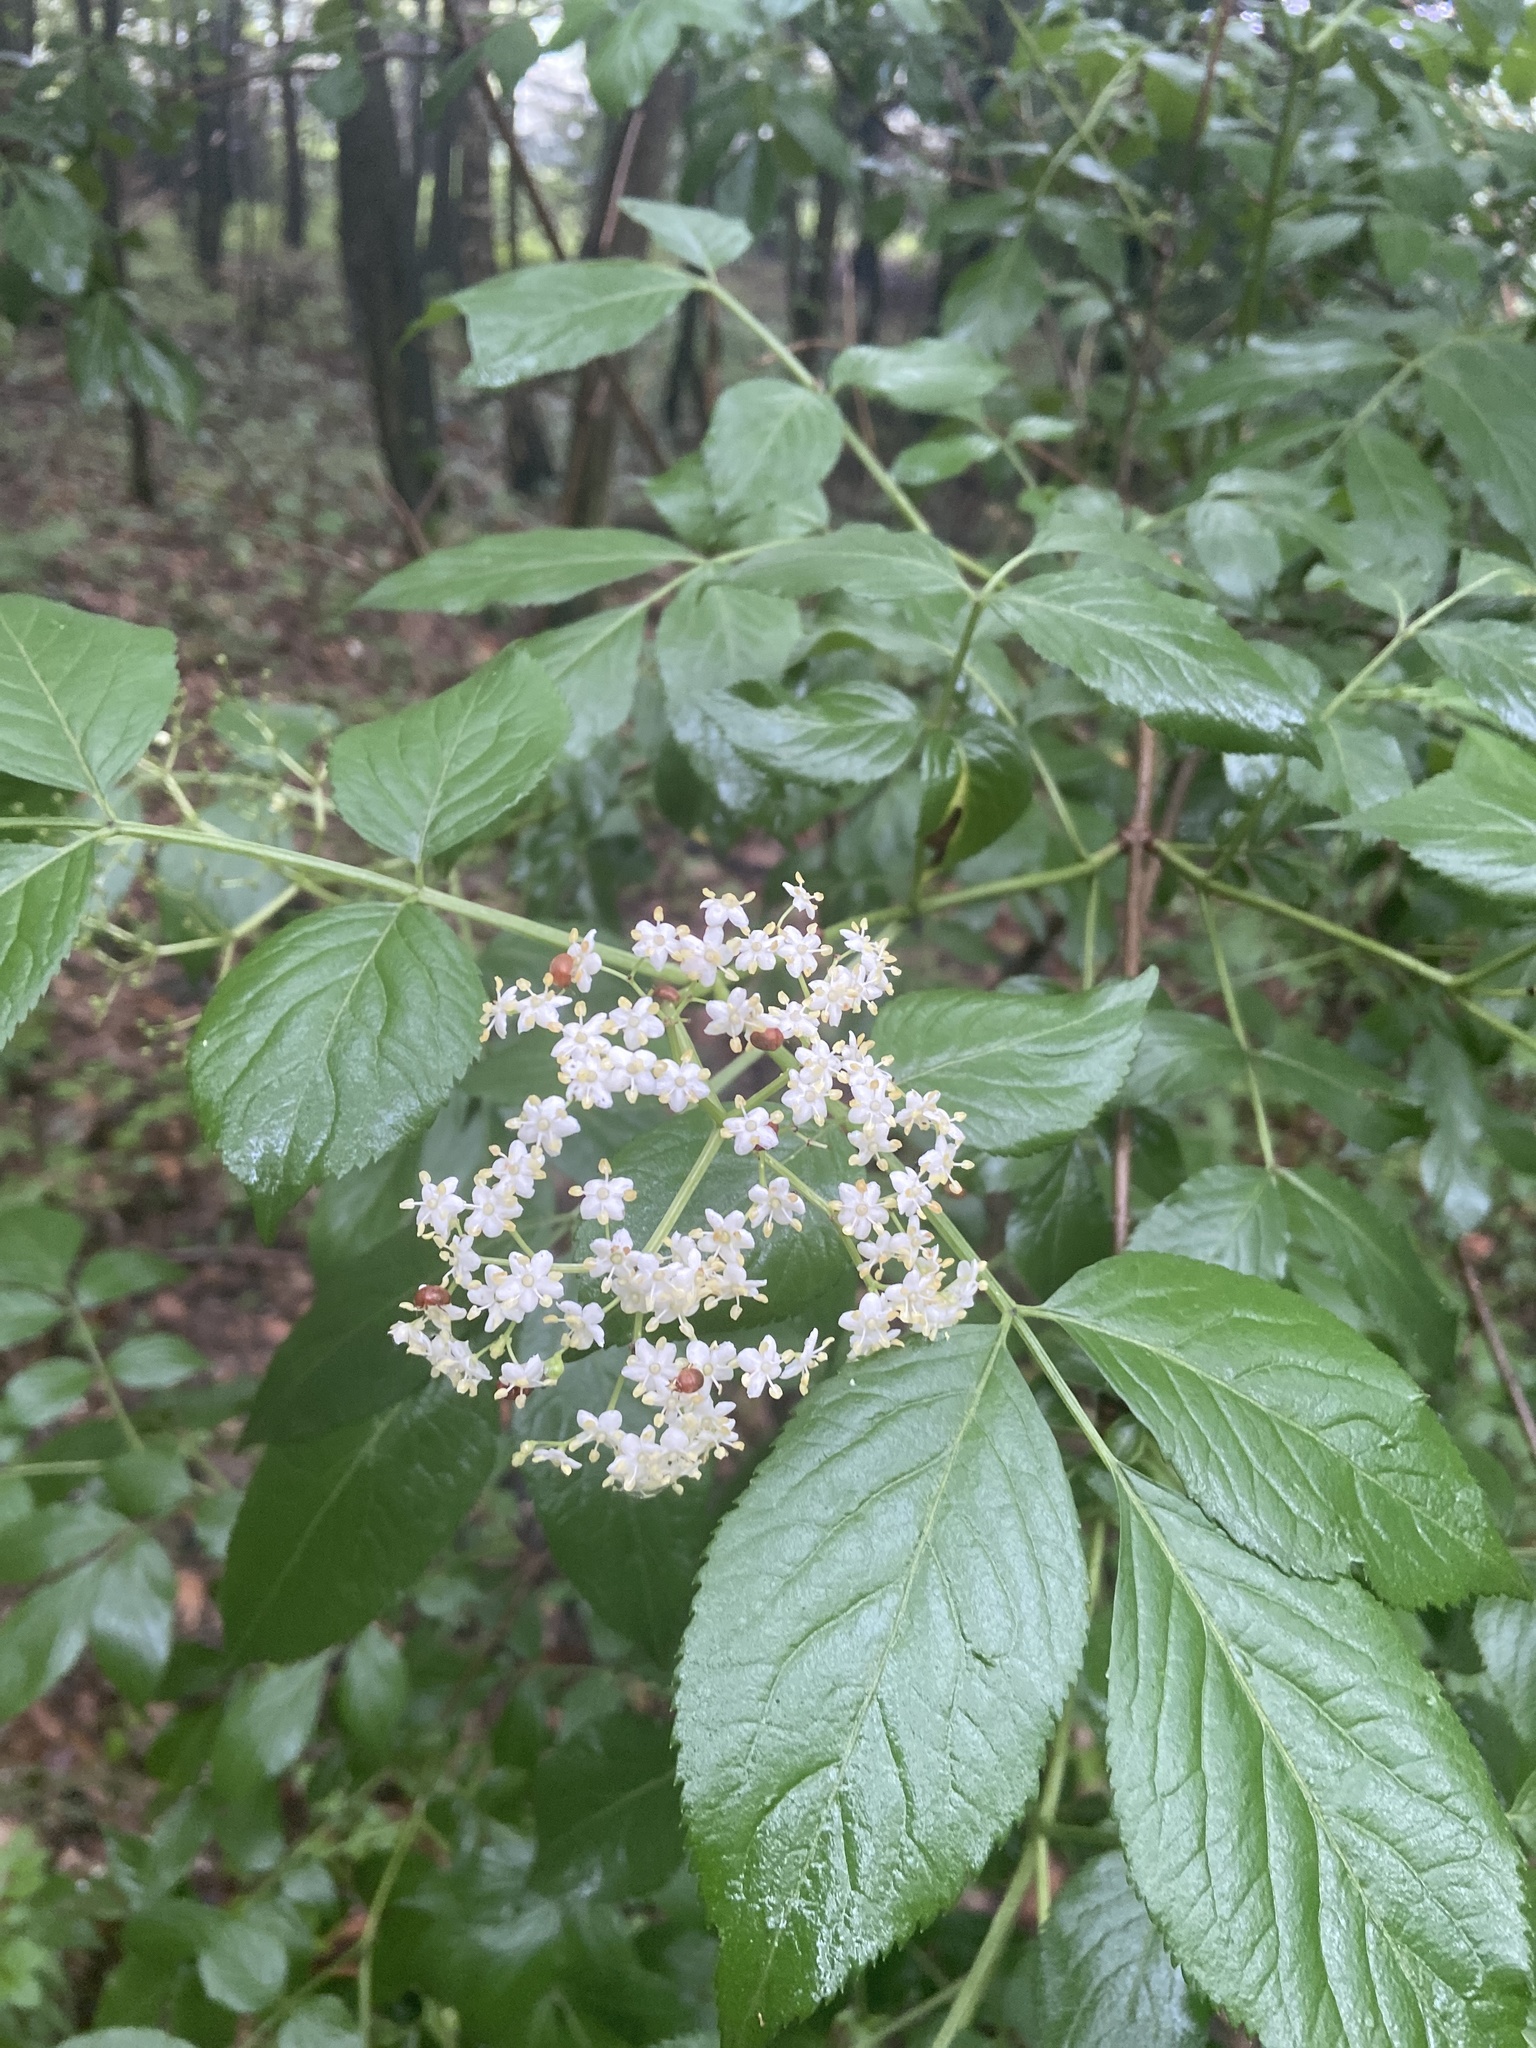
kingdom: Plantae
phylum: Tracheophyta
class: Magnoliopsida
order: Dipsacales
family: Viburnaceae
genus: Sambucus
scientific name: Sambucus nigra
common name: Elder
